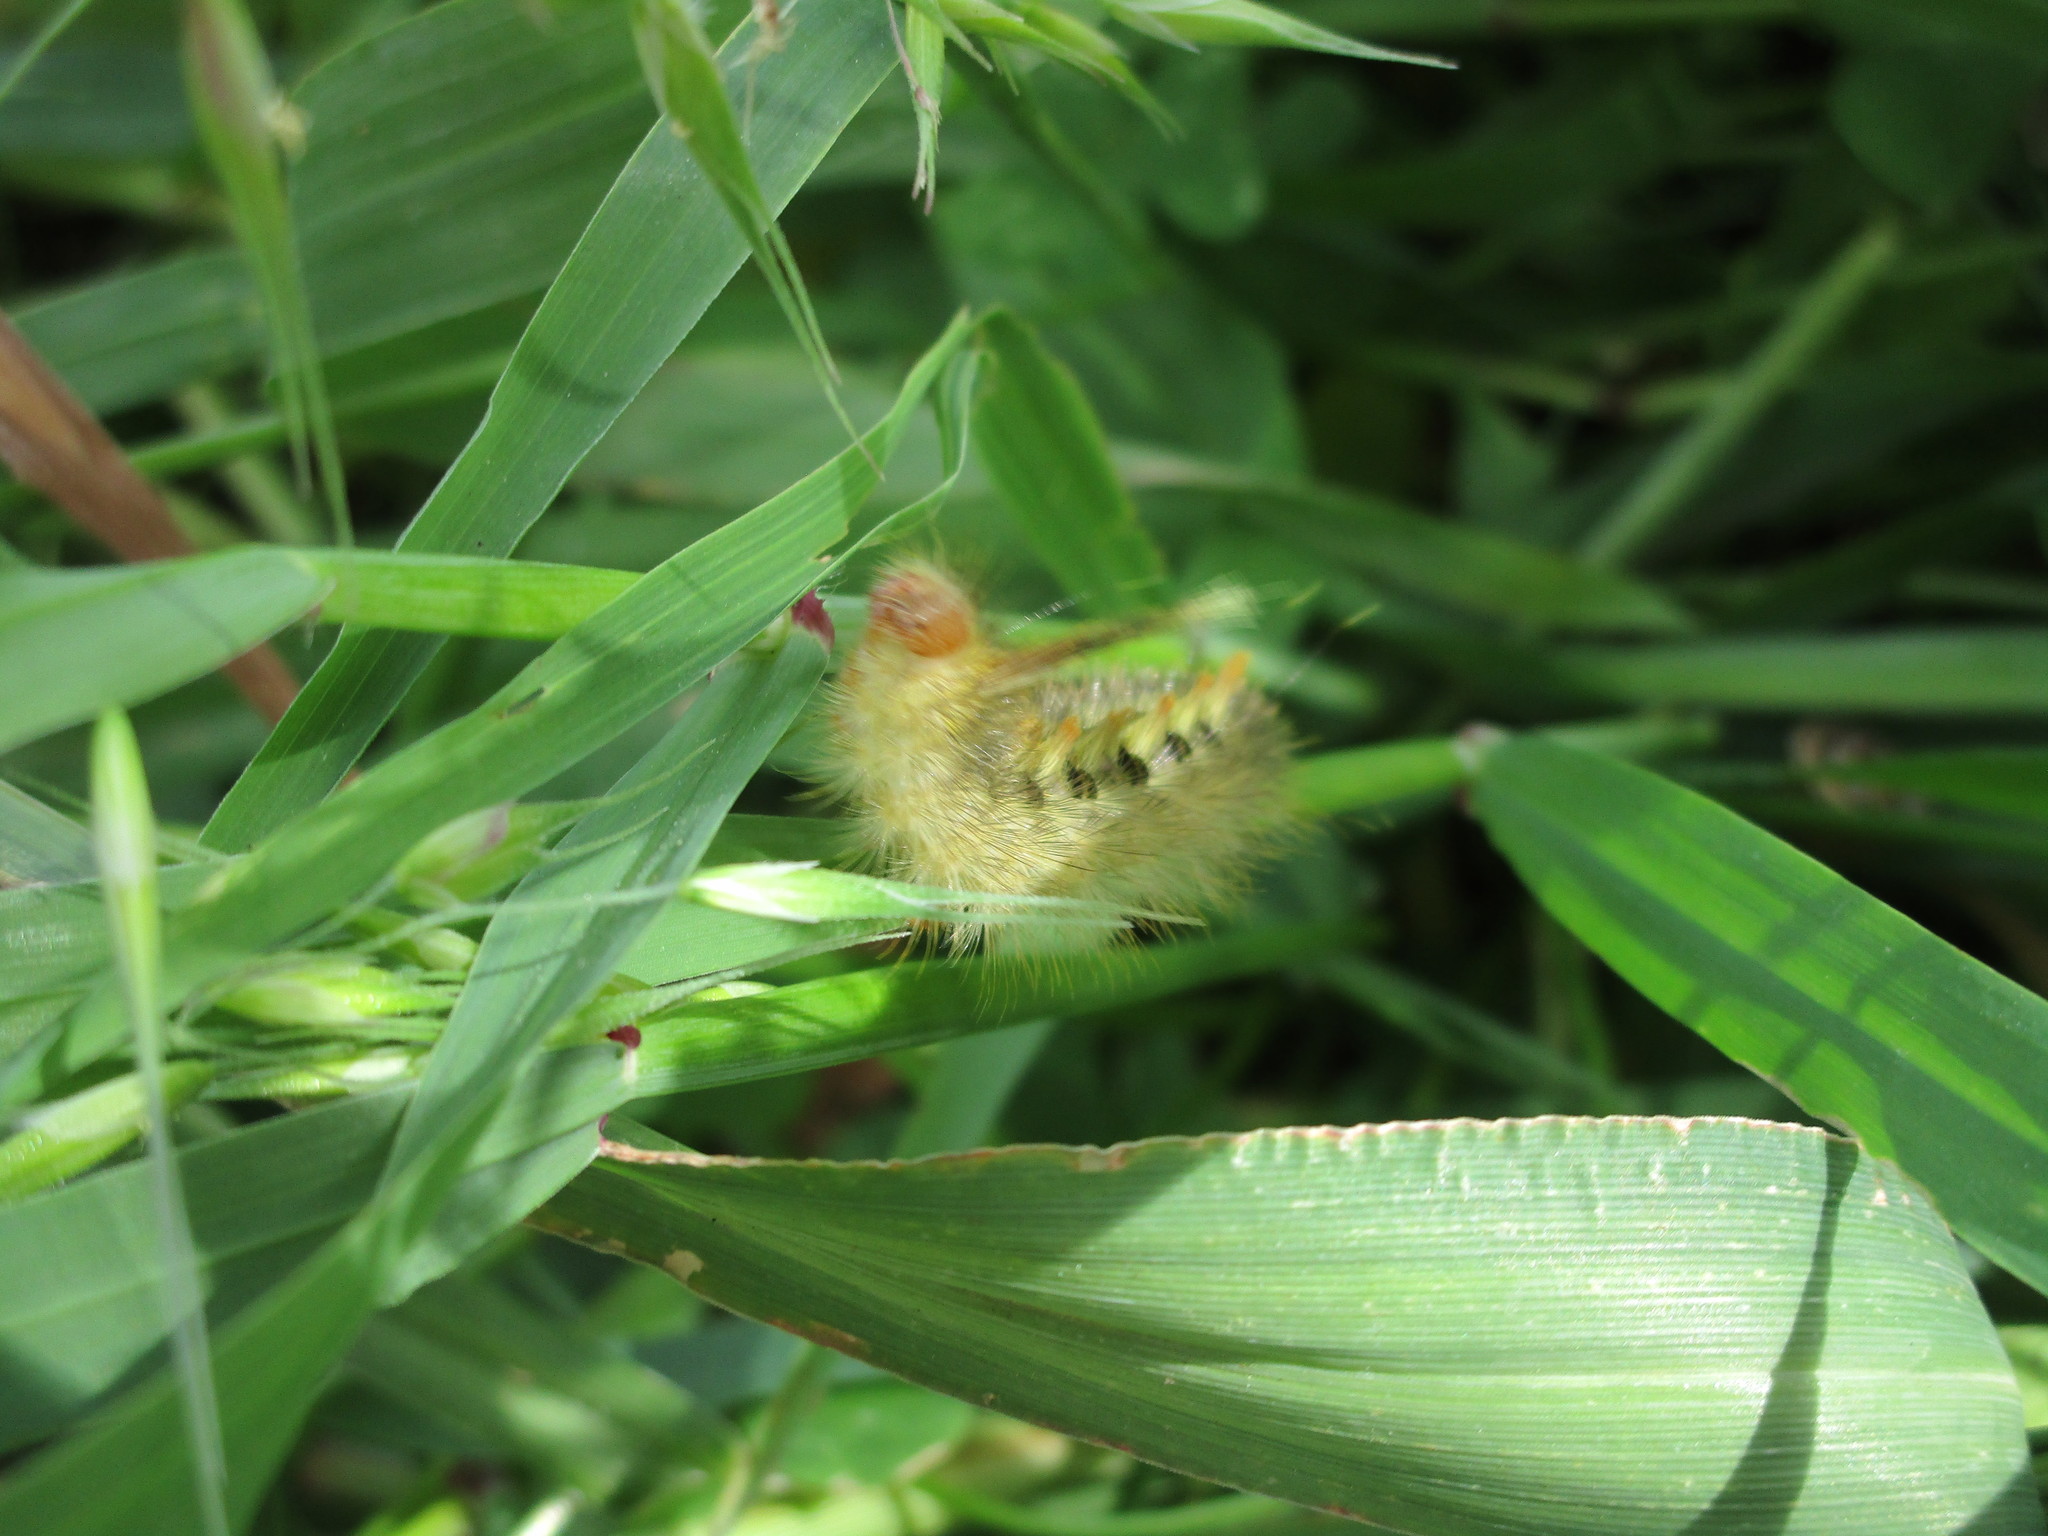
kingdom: Animalia
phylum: Arthropoda
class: Insecta
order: Lepidoptera
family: Notodontidae
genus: Trichiocercus
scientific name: Trichiocercus sparshalli
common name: Long-tailed satin
